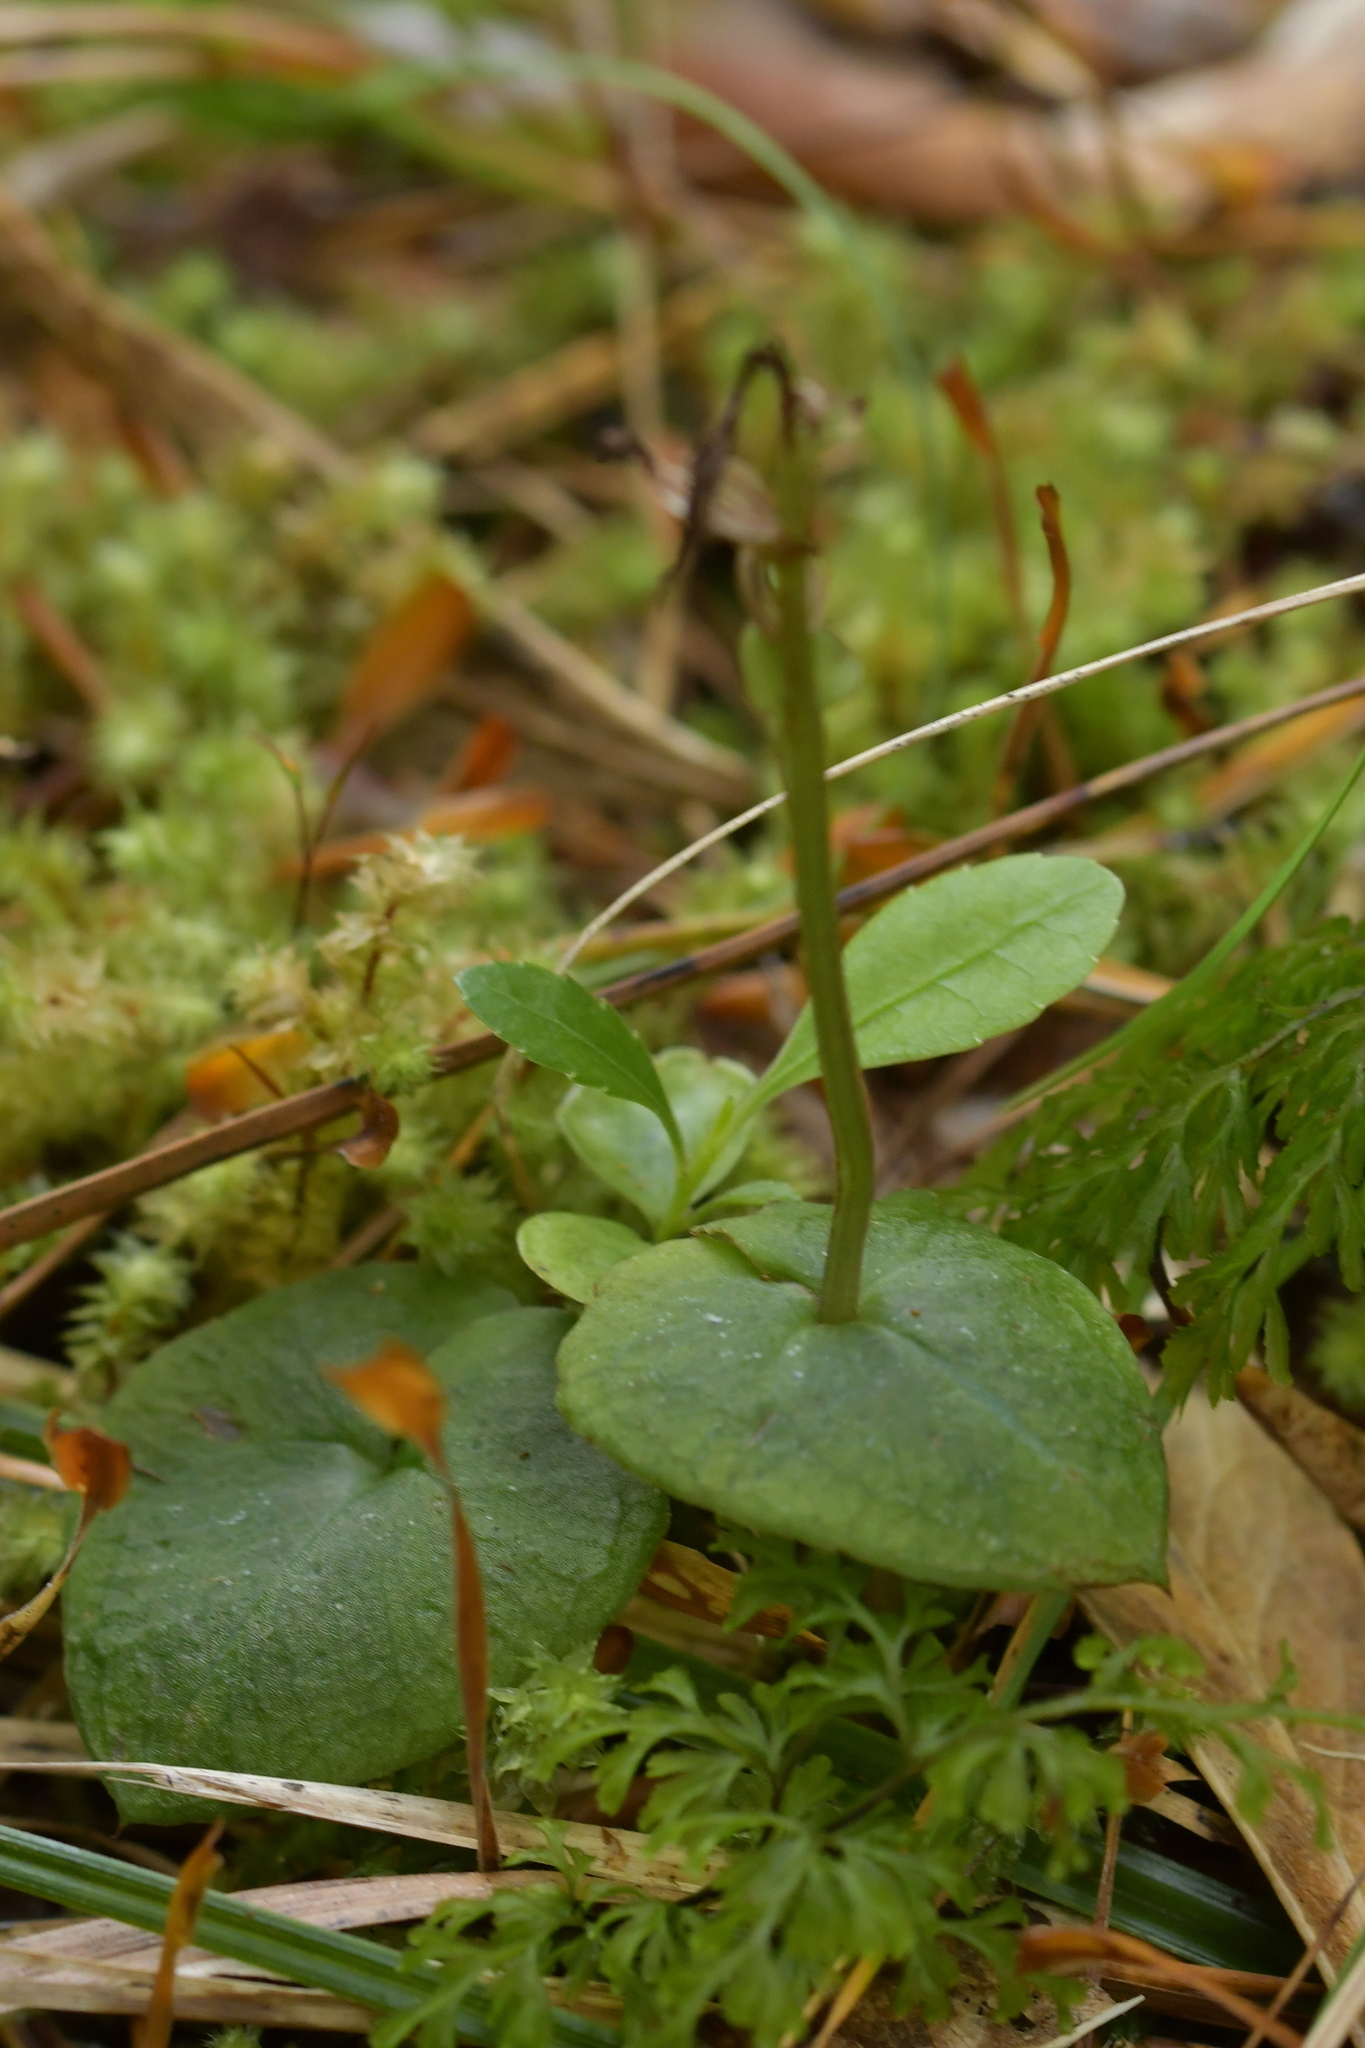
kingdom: Plantae
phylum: Tracheophyta
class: Liliopsida
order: Asparagales
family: Orchidaceae
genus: Acianthus
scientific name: Acianthus sinclairii
